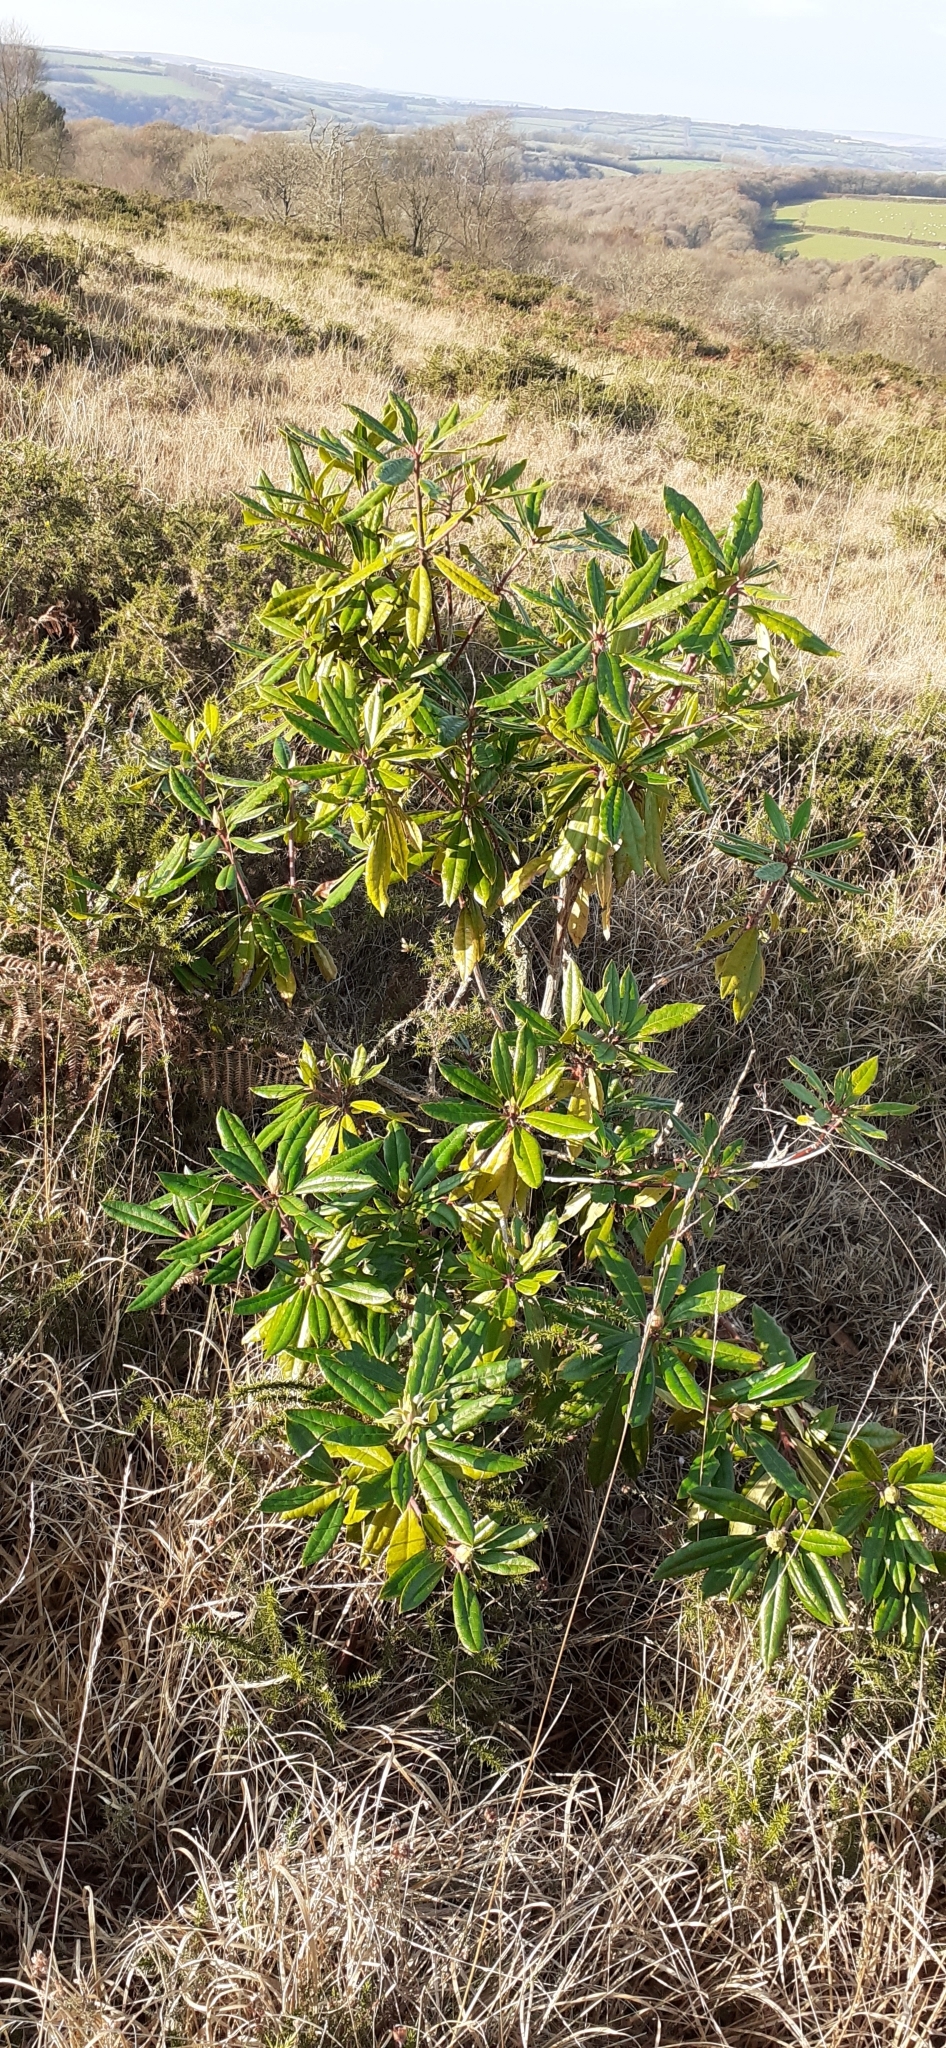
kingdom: Plantae
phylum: Tracheophyta
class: Magnoliopsida
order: Ericales
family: Ericaceae
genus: Rhododendron
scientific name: Rhododendron ponticum
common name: Rhododendron
